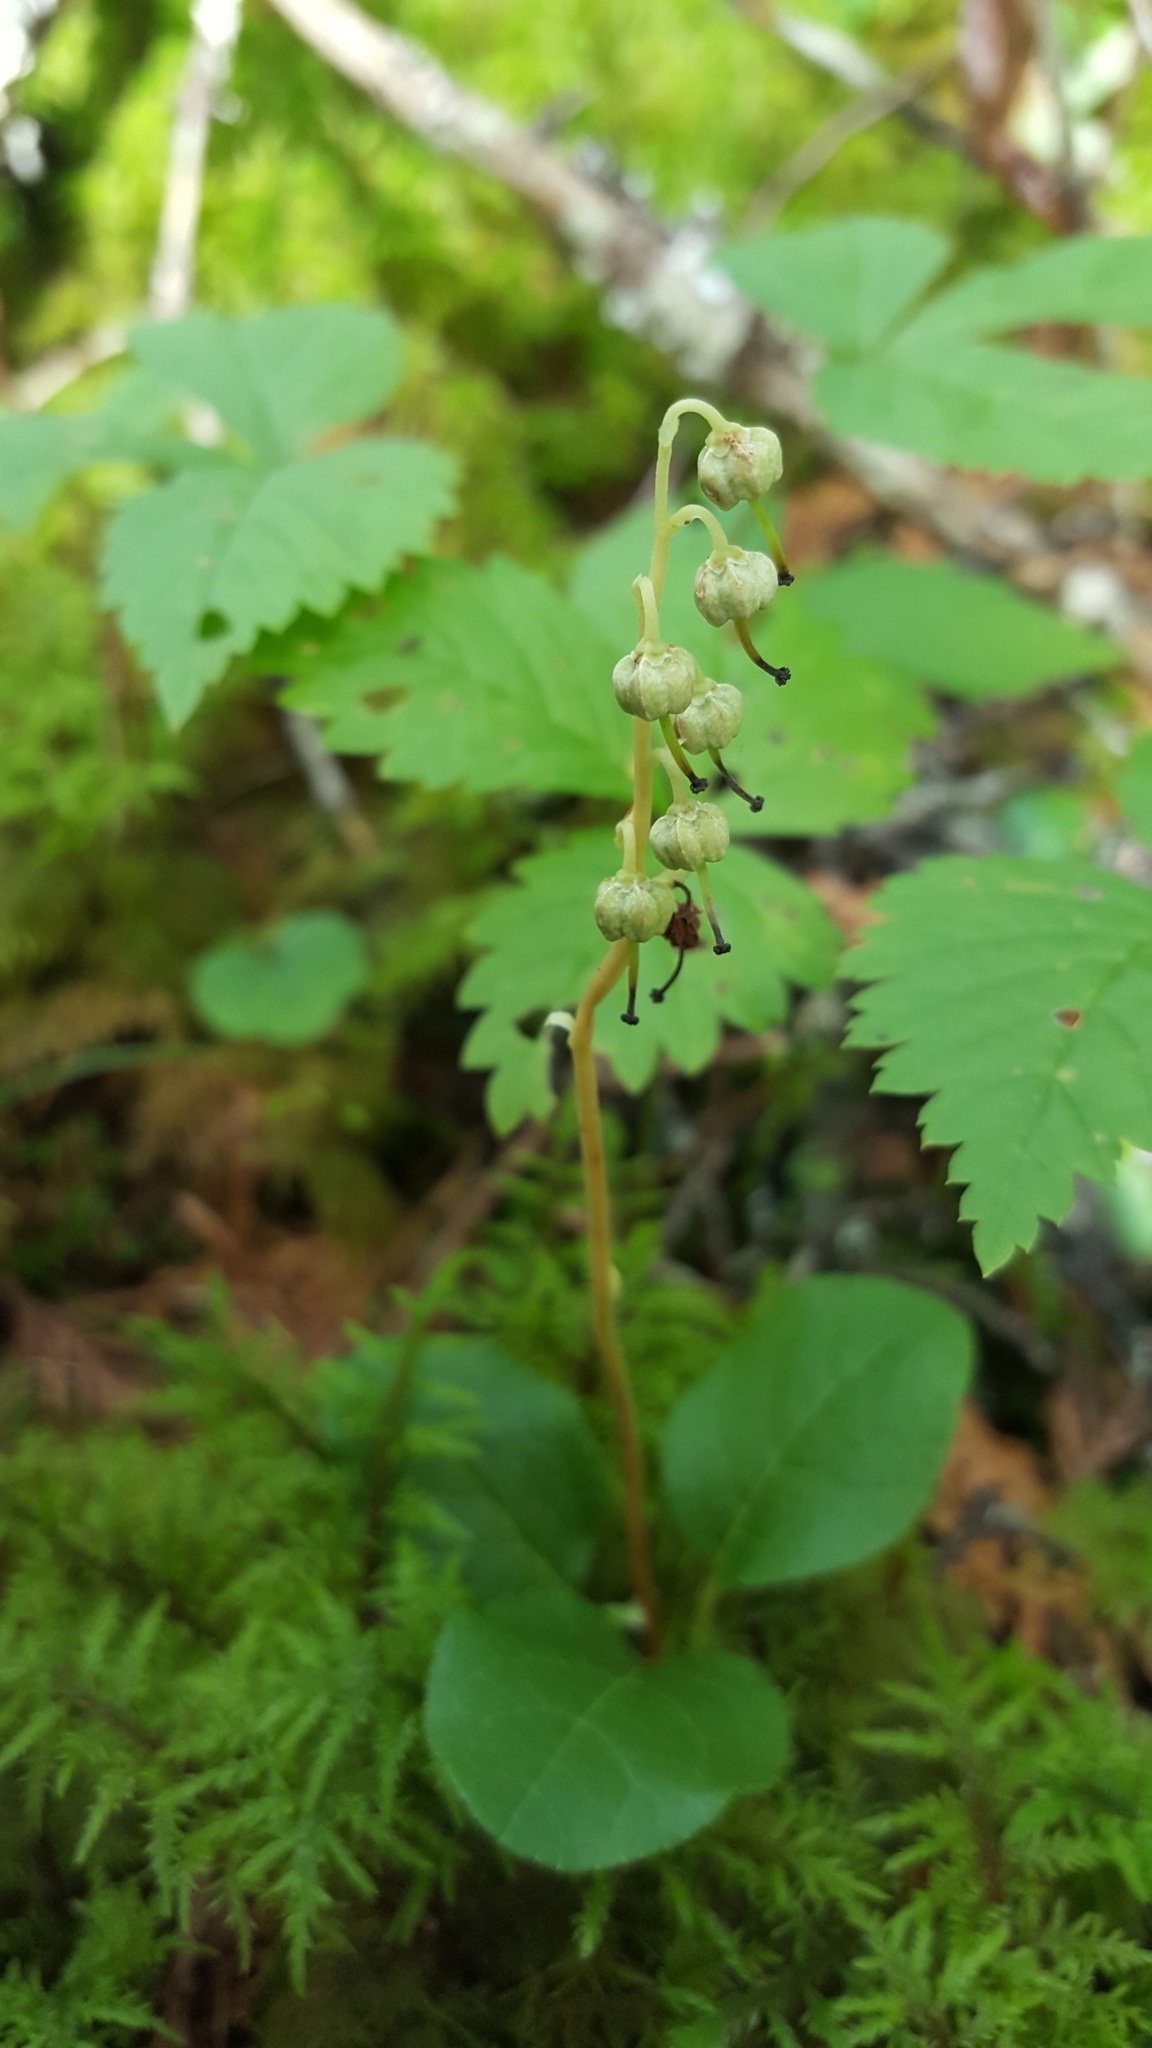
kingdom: Plantae
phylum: Tracheophyta
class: Magnoliopsida
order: Ericales
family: Ericaceae
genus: Orthilia
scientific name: Orthilia secunda
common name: One-sided orthilia
